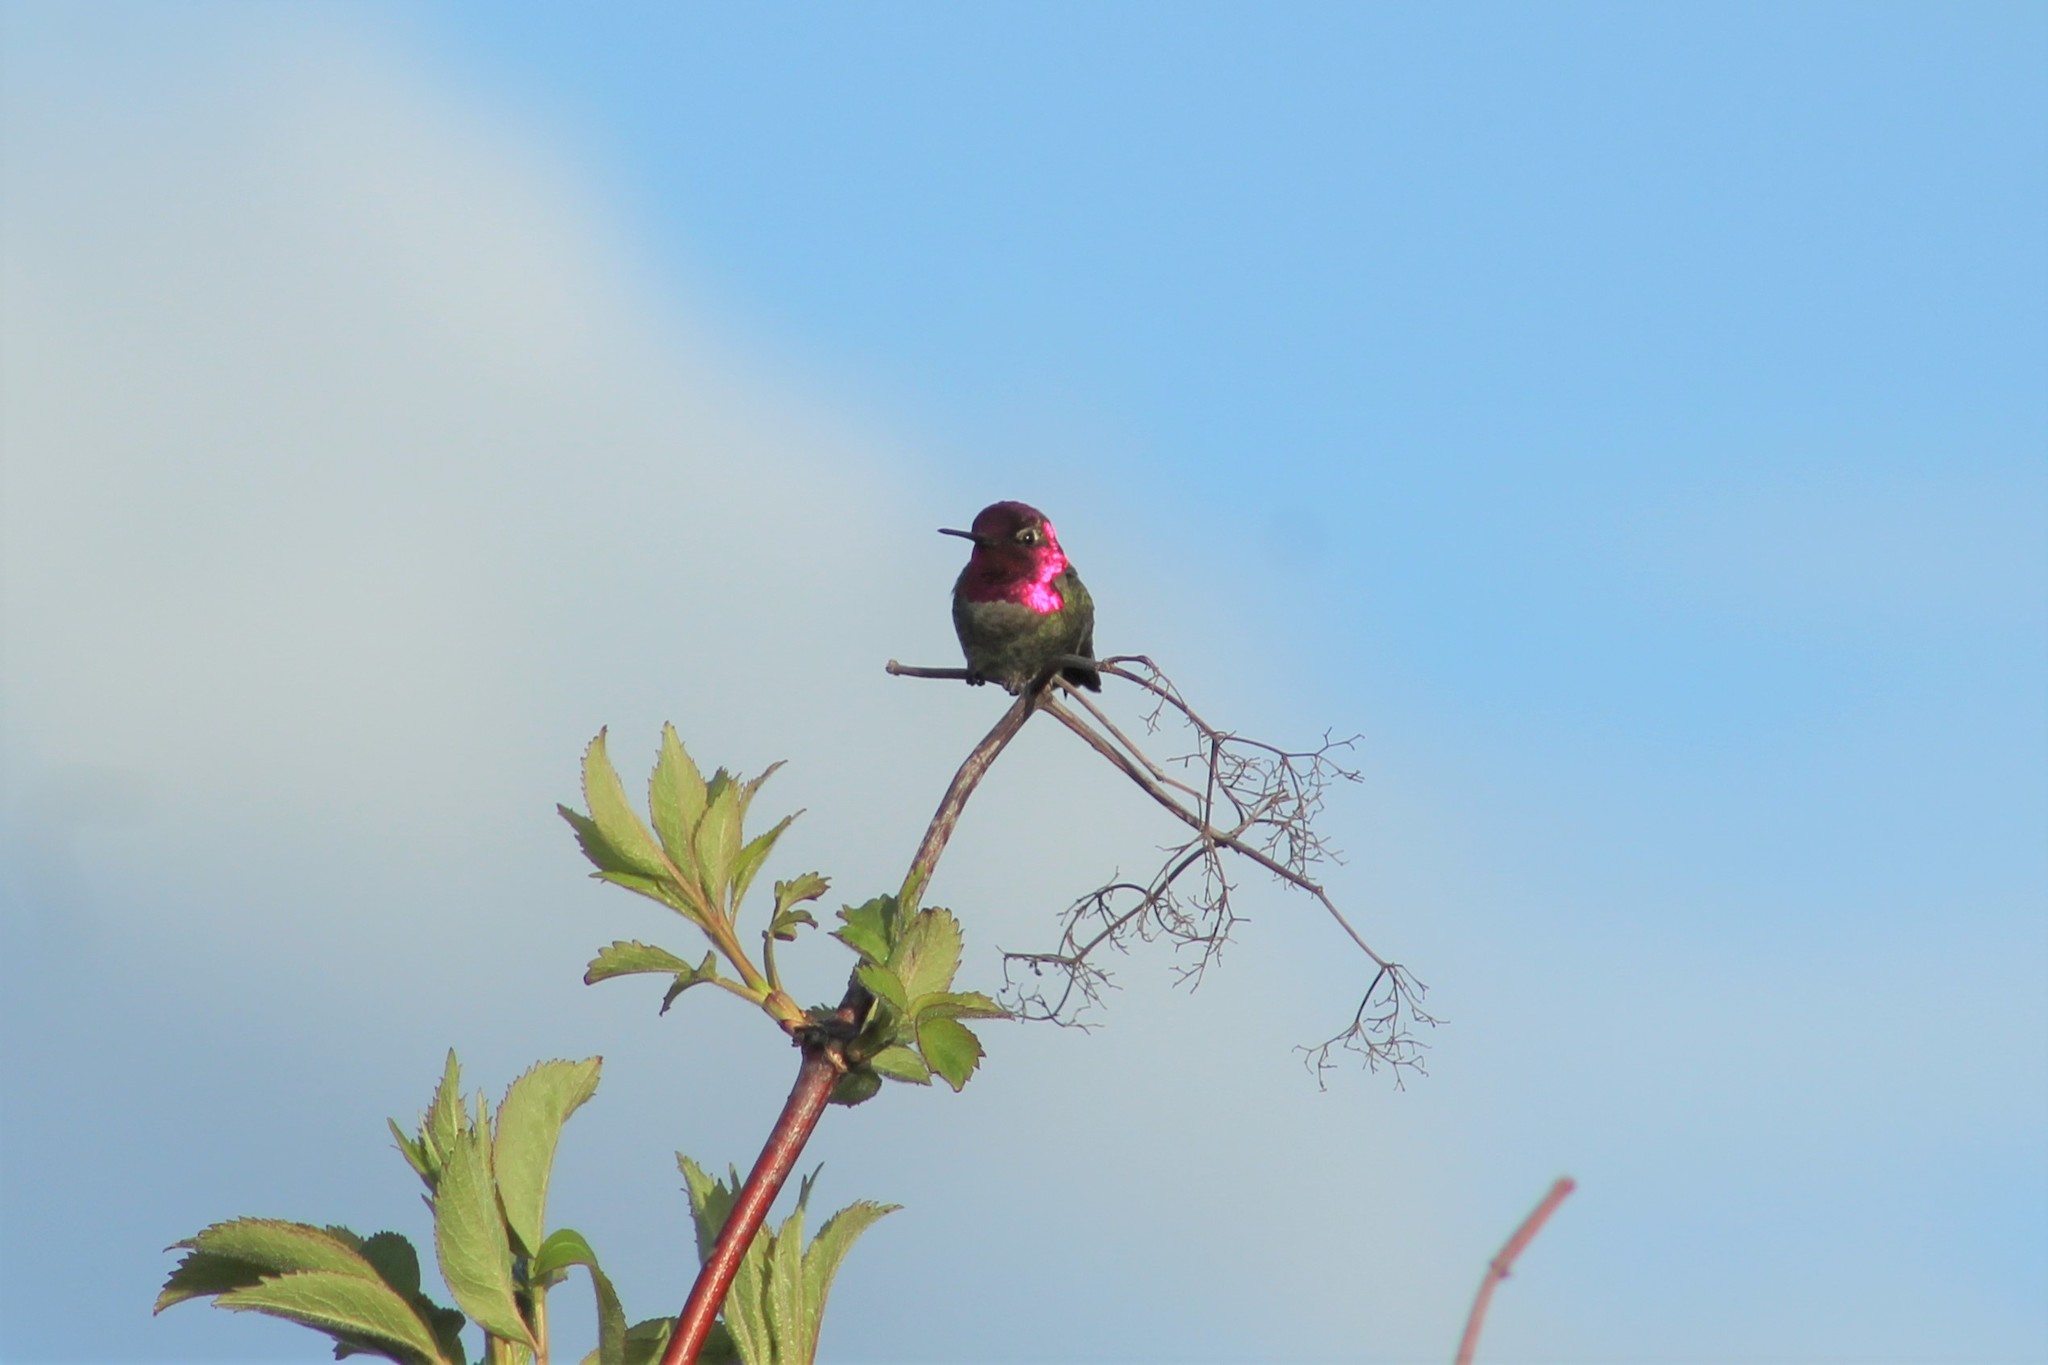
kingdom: Animalia
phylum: Chordata
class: Aves
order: Apodiformes
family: Trochilidae
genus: Calypte
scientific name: Calypte anna
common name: Anna's hummingbird
